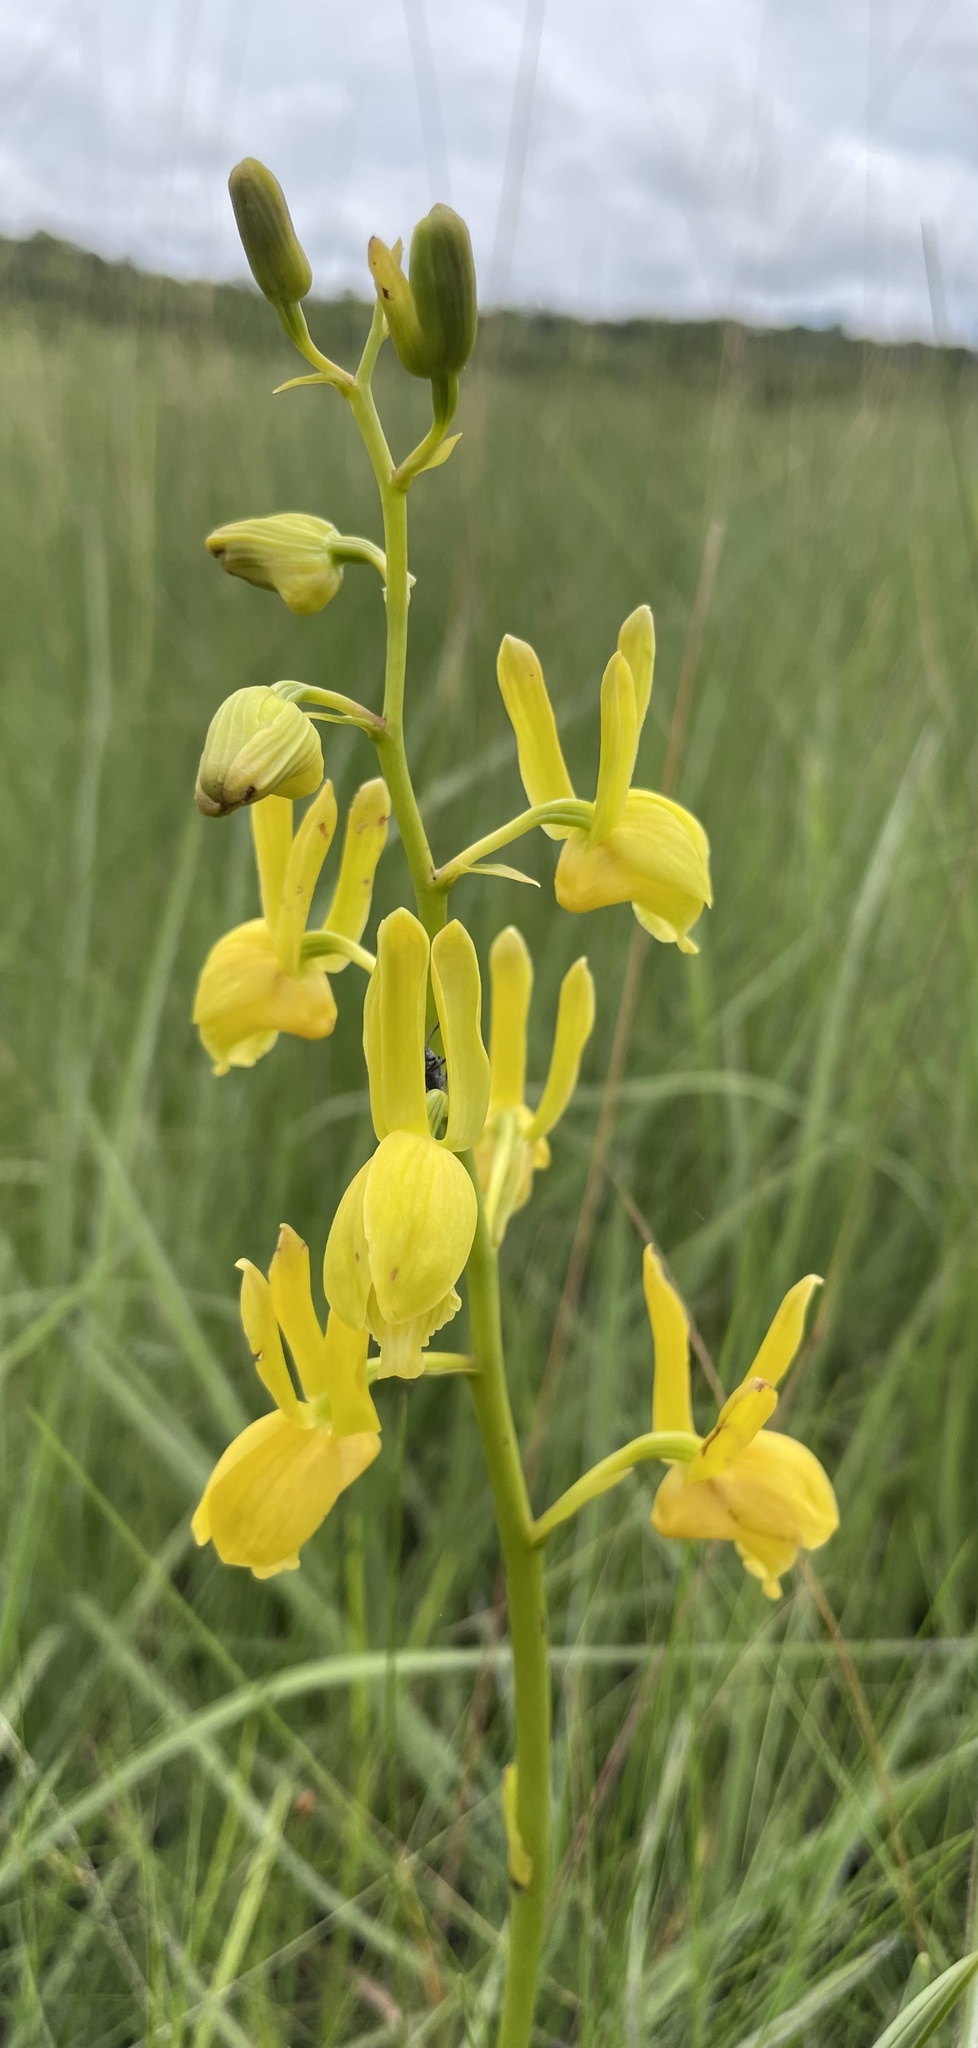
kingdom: Plantae
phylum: Tracheophyta
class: Liliopsida
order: Asparagales
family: Orchidaceae
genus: Eulophia
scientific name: Eulophia angolensis
